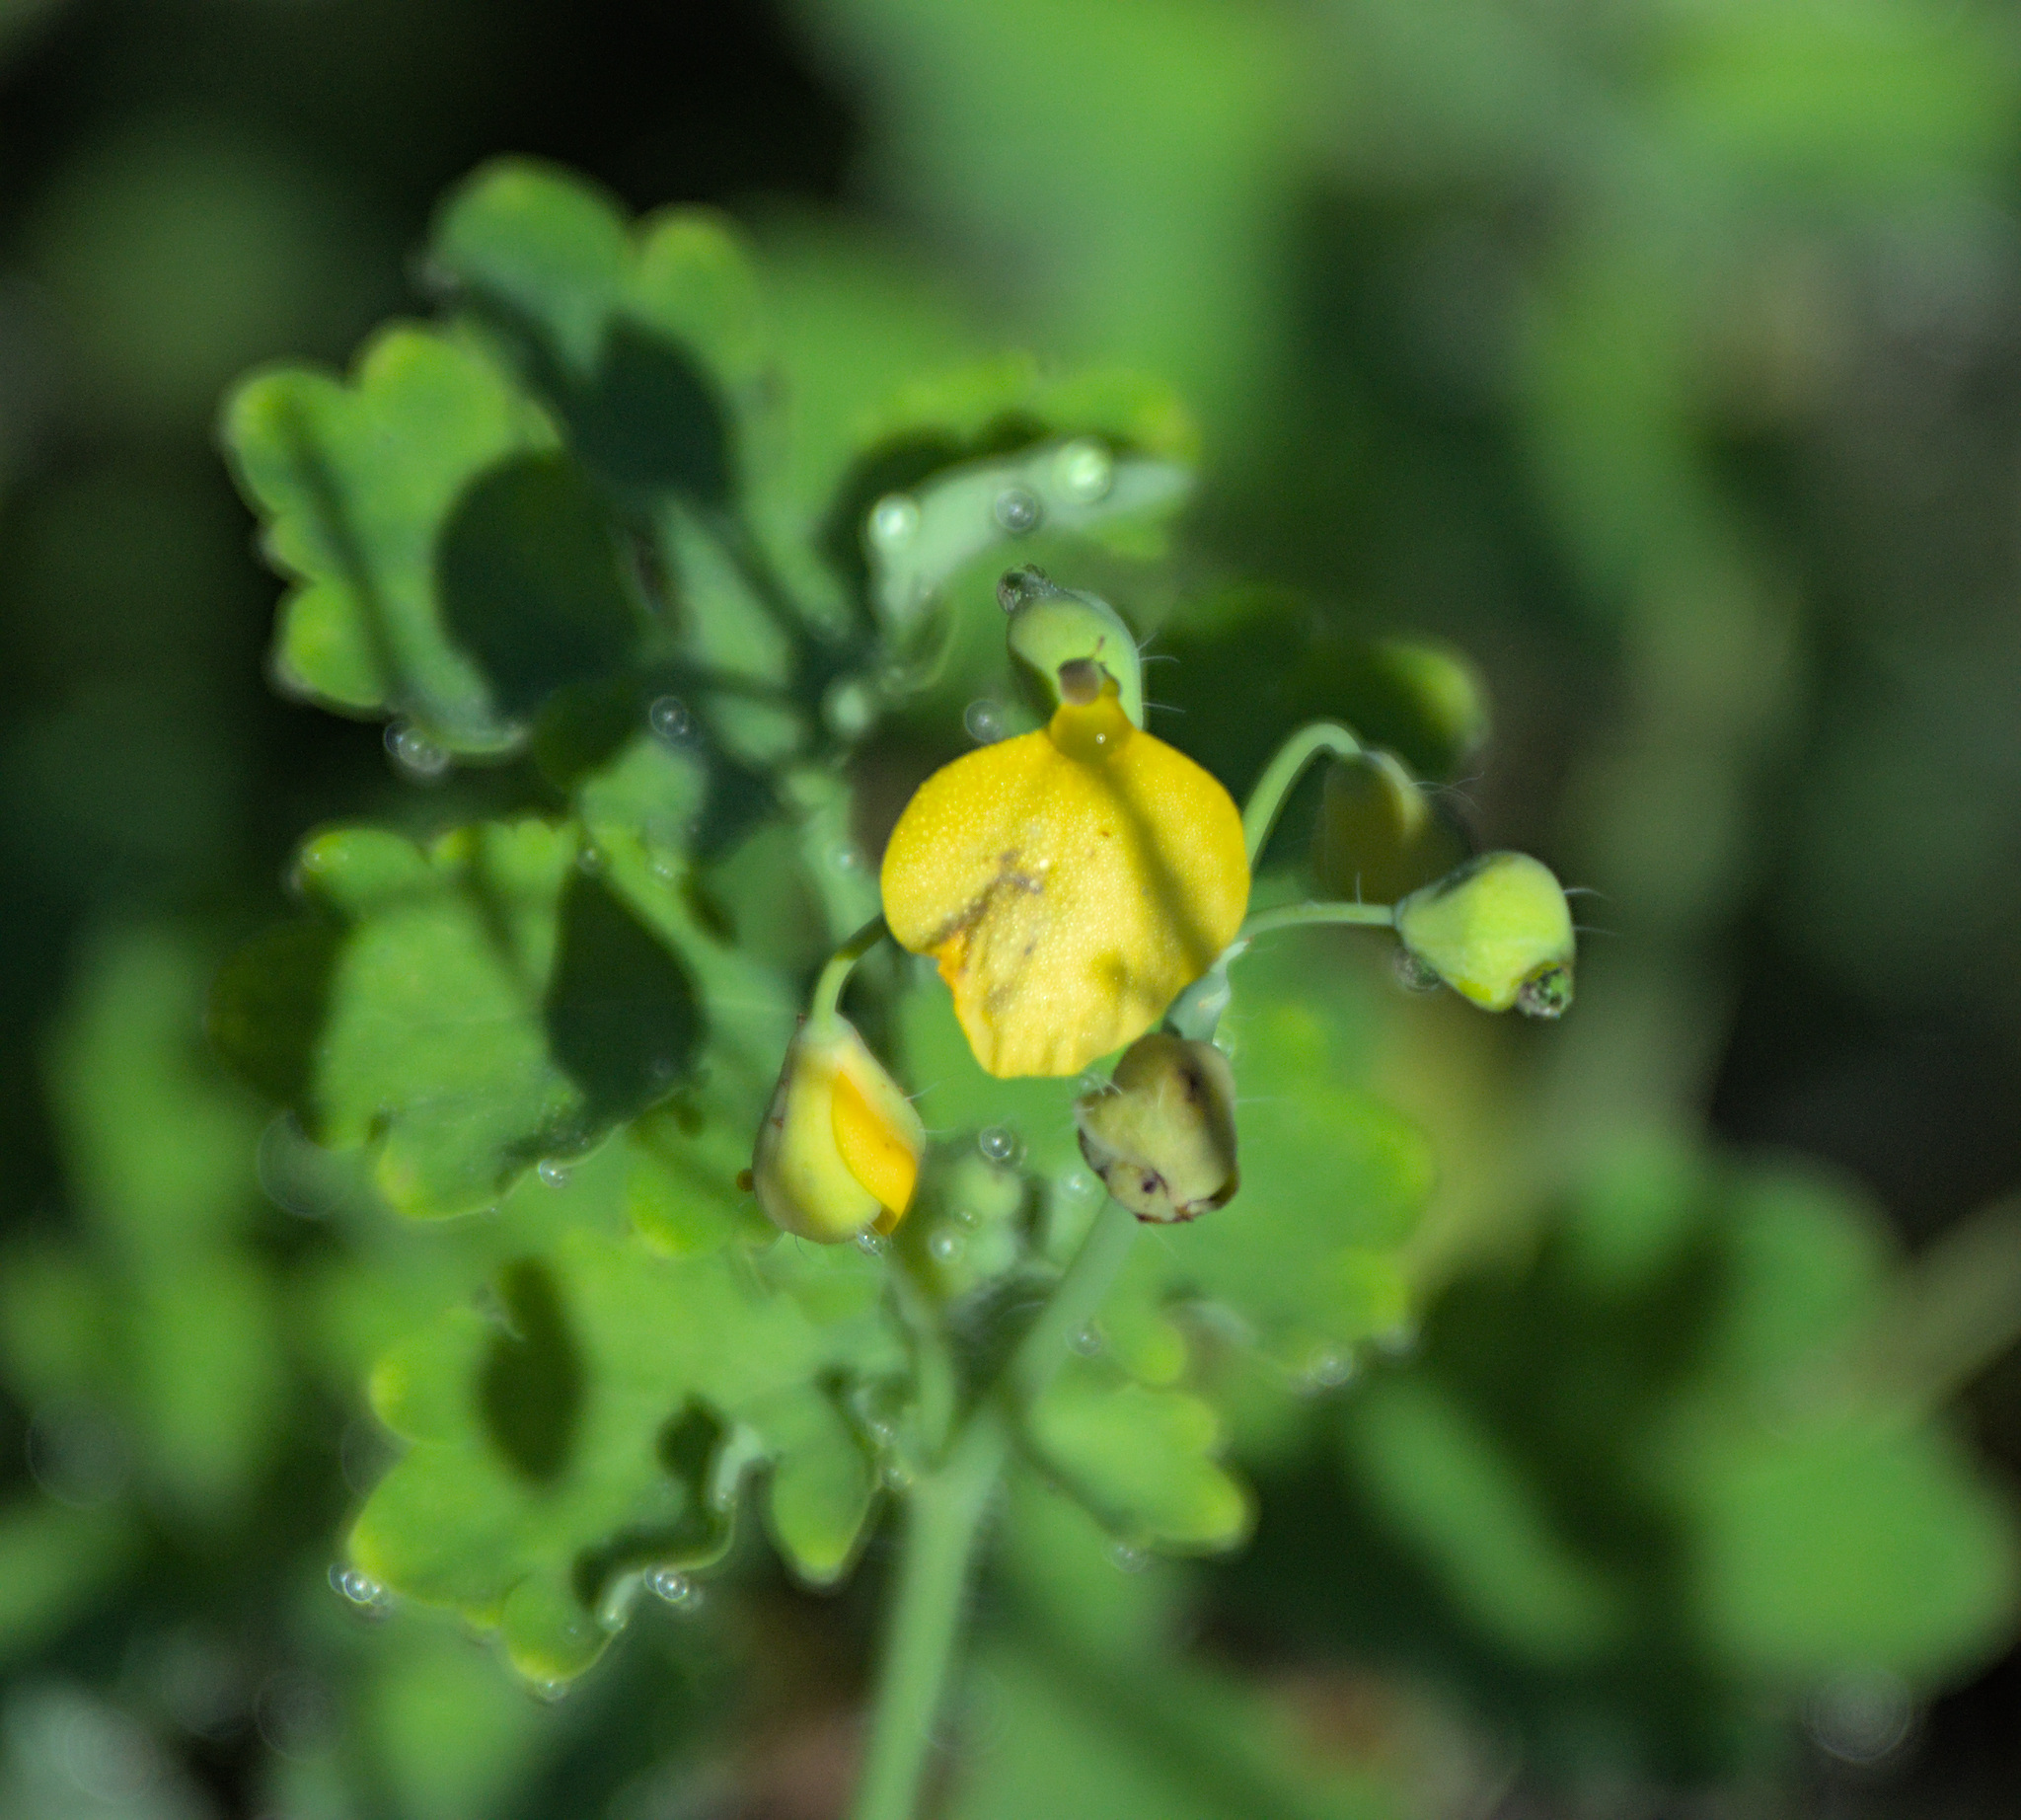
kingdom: Plantae
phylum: Tracheophyta
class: Magnoliopsida
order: Ranunculales
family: Papaveraceae
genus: Chelidonium
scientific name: Chelidonium majus
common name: Greater celandine
